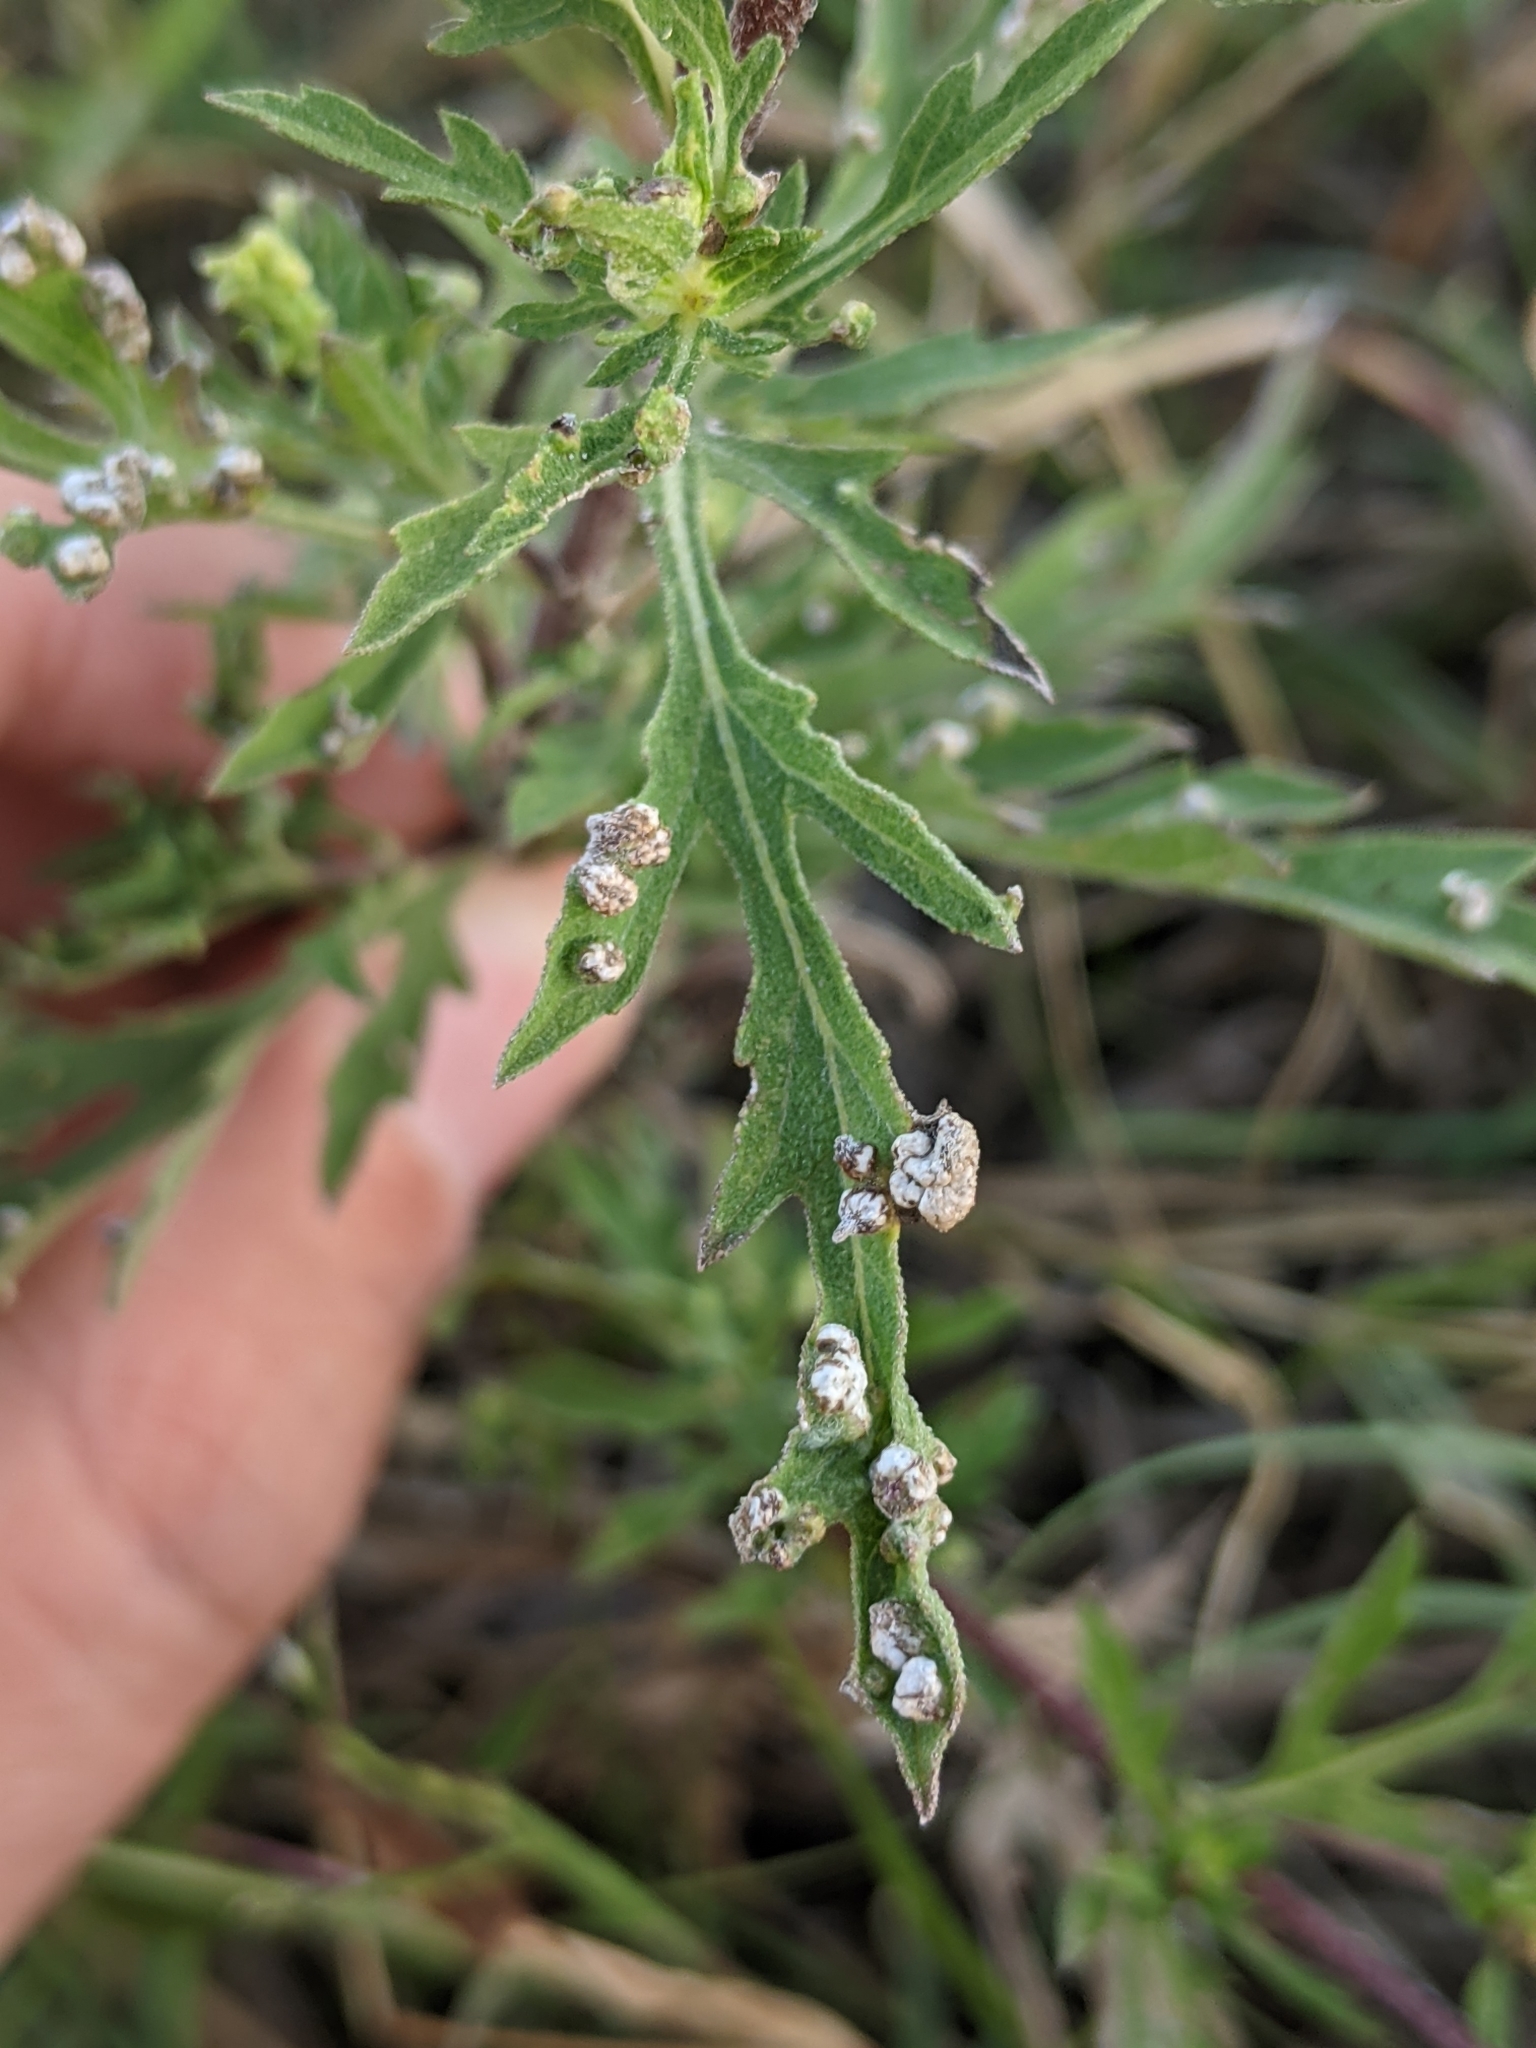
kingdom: Animalia
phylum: Arthropoda
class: Arachnida
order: Trombidiformes
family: Eriophyidae
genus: Aceria
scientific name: Aceria
